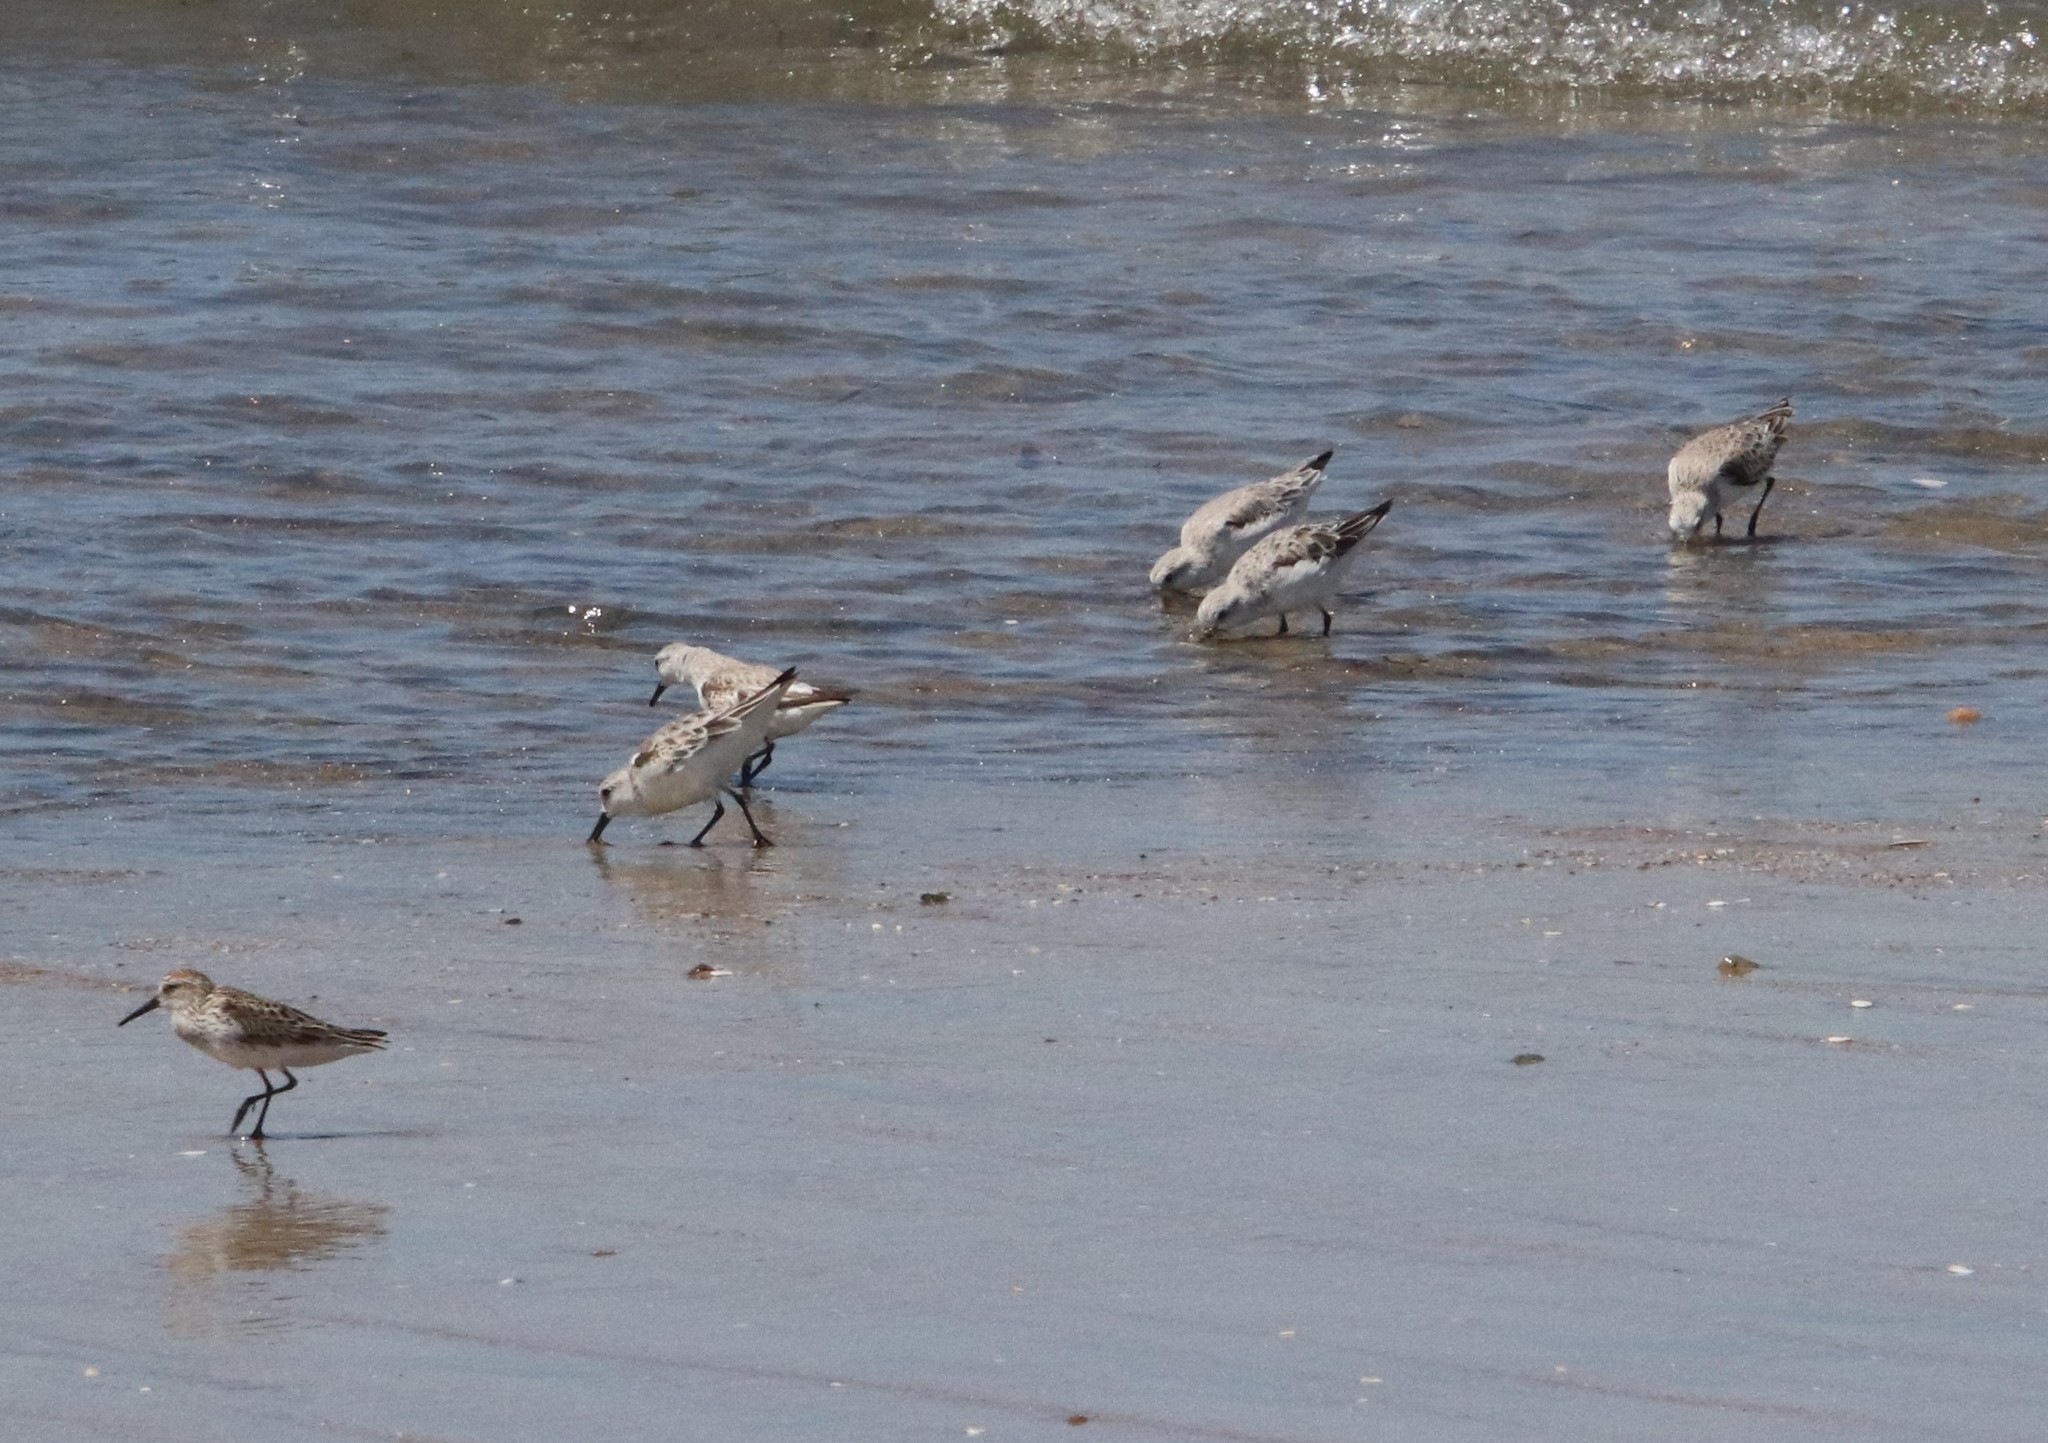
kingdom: Animalia
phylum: Chordata
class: Aves
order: Charadriiformes
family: Scolopacidae
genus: Calidris
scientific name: Calidris alba
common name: Sanderling
